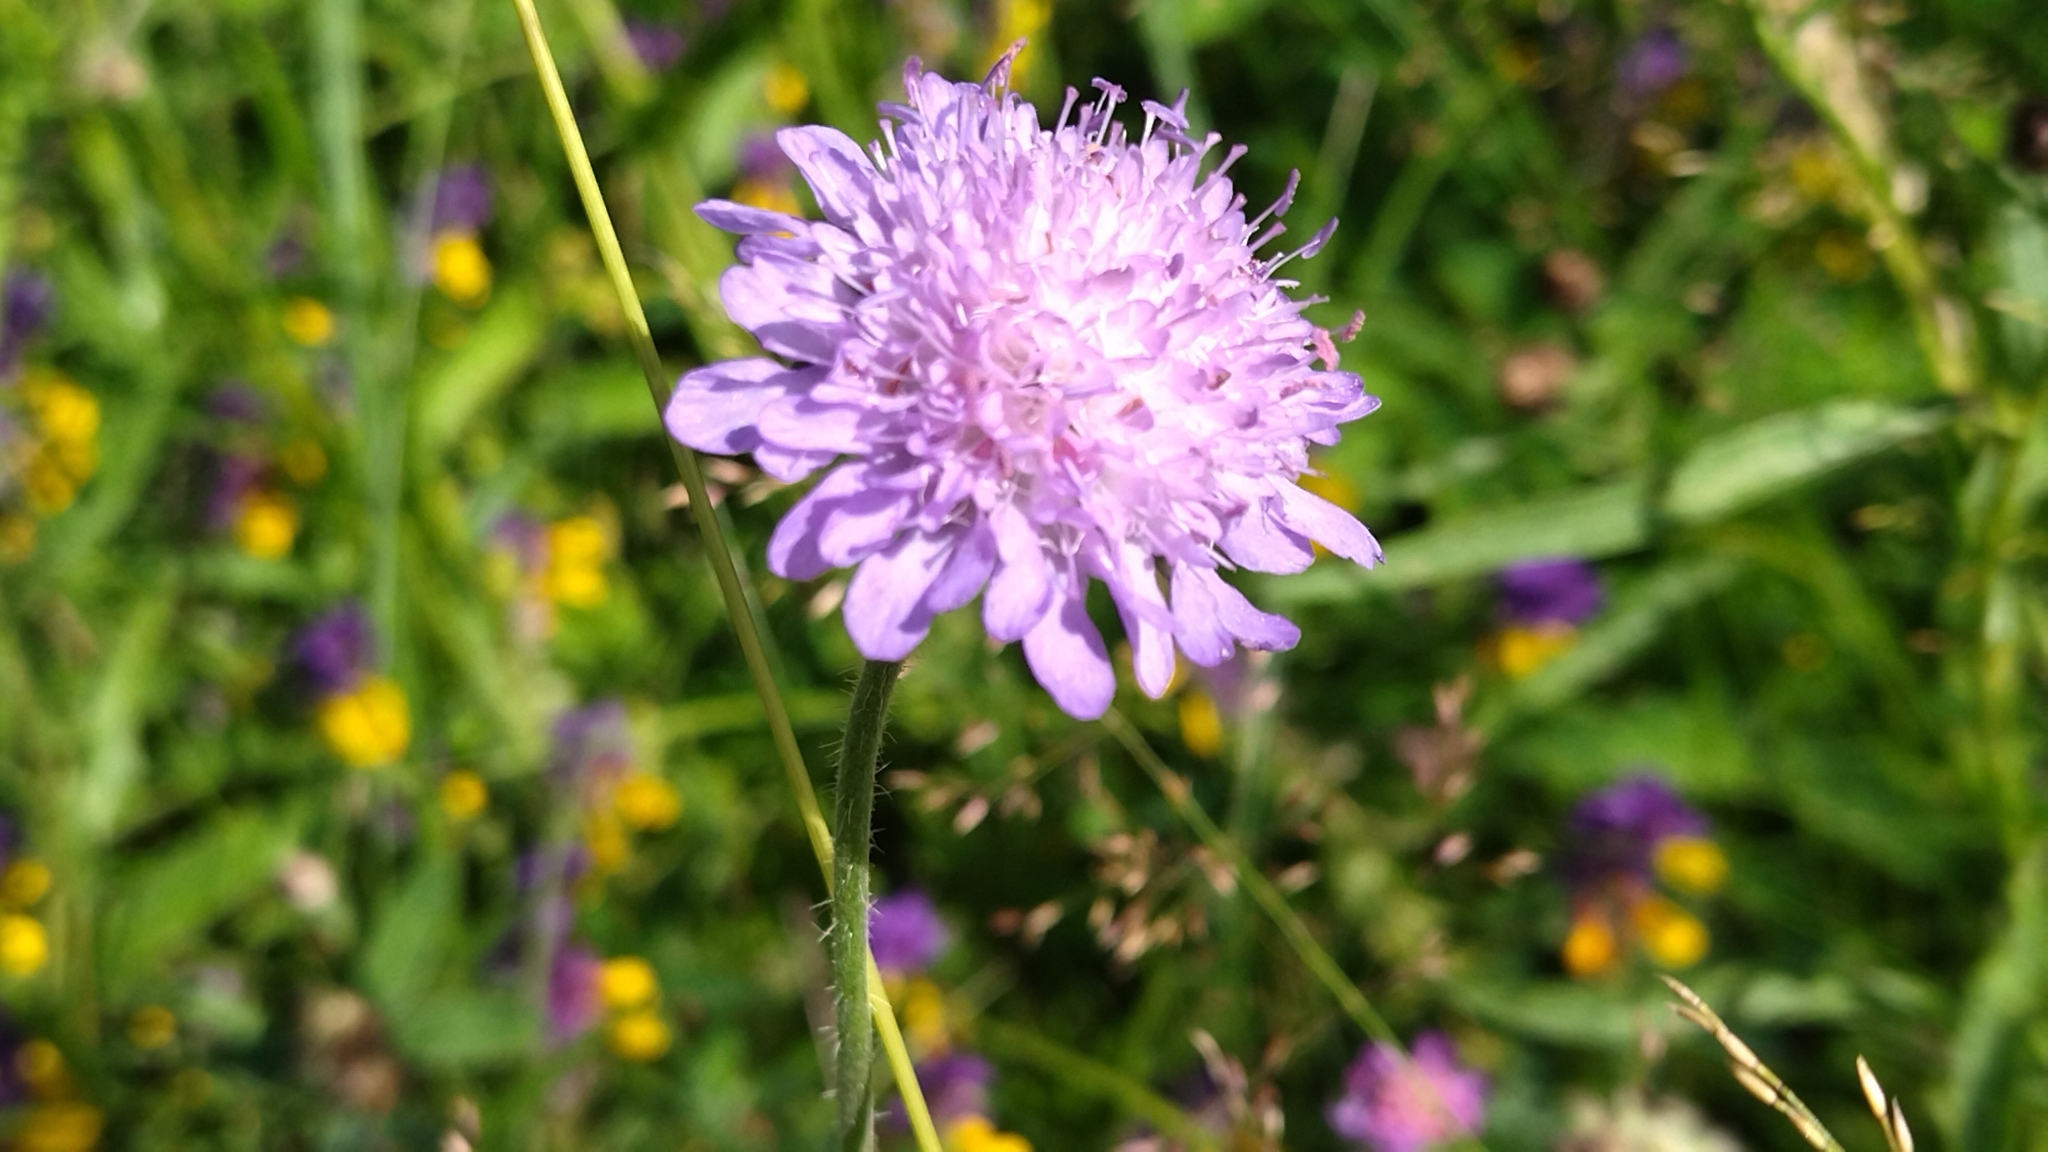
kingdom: Plantae
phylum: Tracheophyta
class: Magnoliopsida
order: Dipsacales
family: Caprifoliaceae
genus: Knautia
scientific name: Knautia arvensis
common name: Field scabiosa
